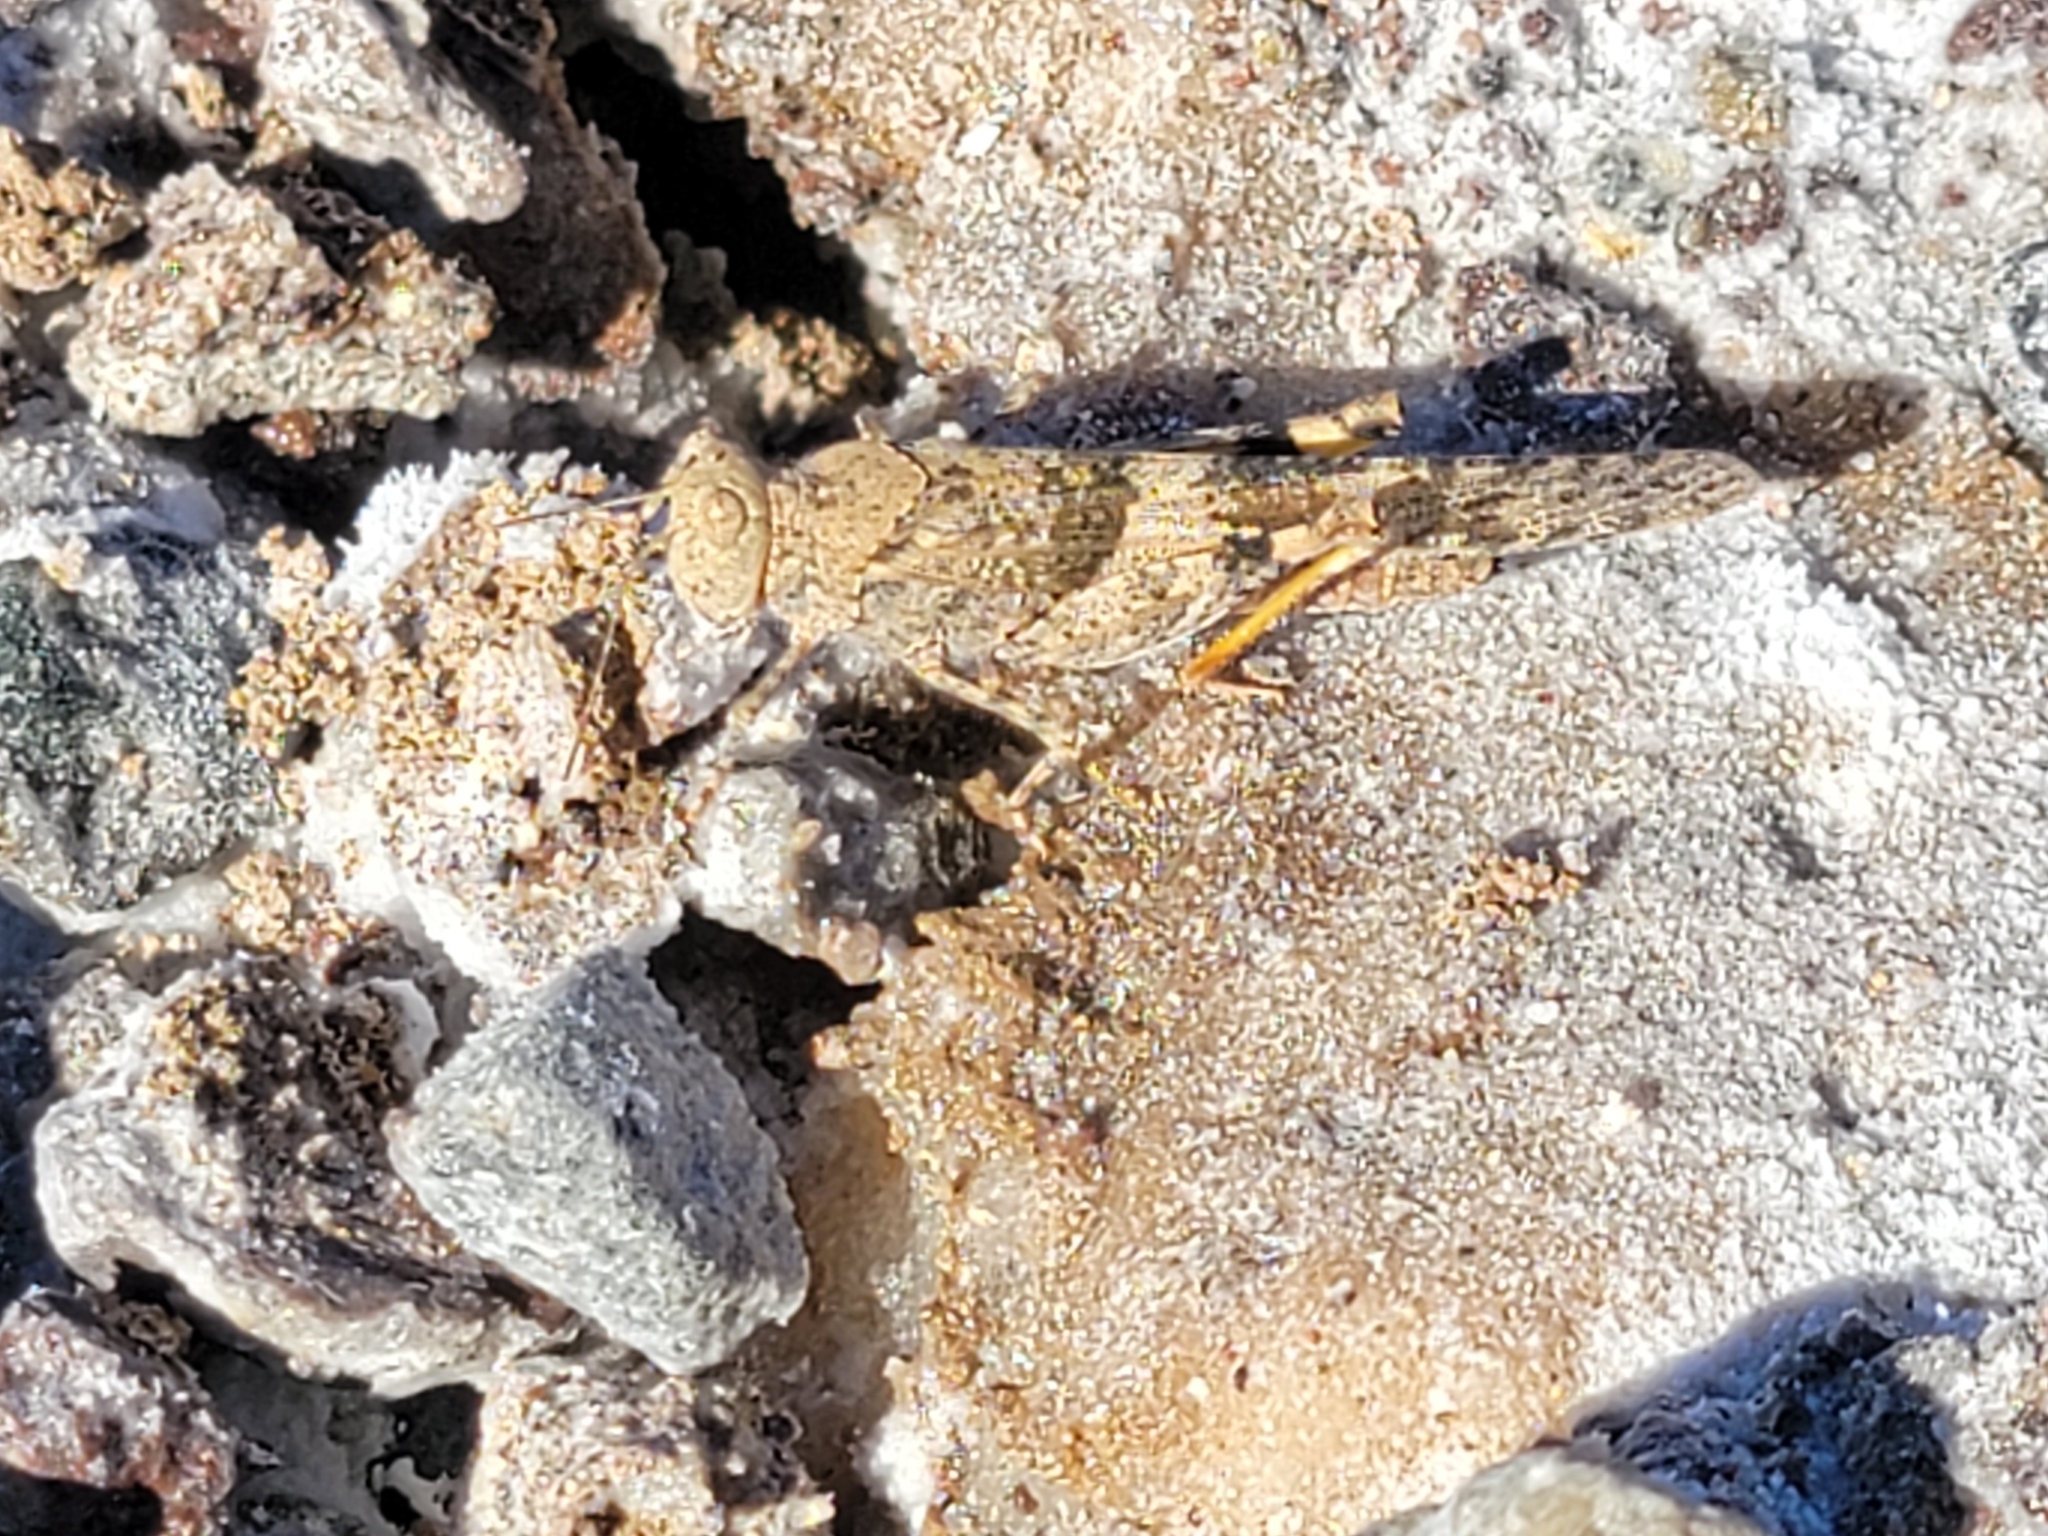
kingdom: Animalia
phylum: Arthropoda
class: Insecta
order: Orthoptera
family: Acrididae
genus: Trimerotropis
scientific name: Trimerotropis pallidipennis
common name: Pallid-winged grasshopper
